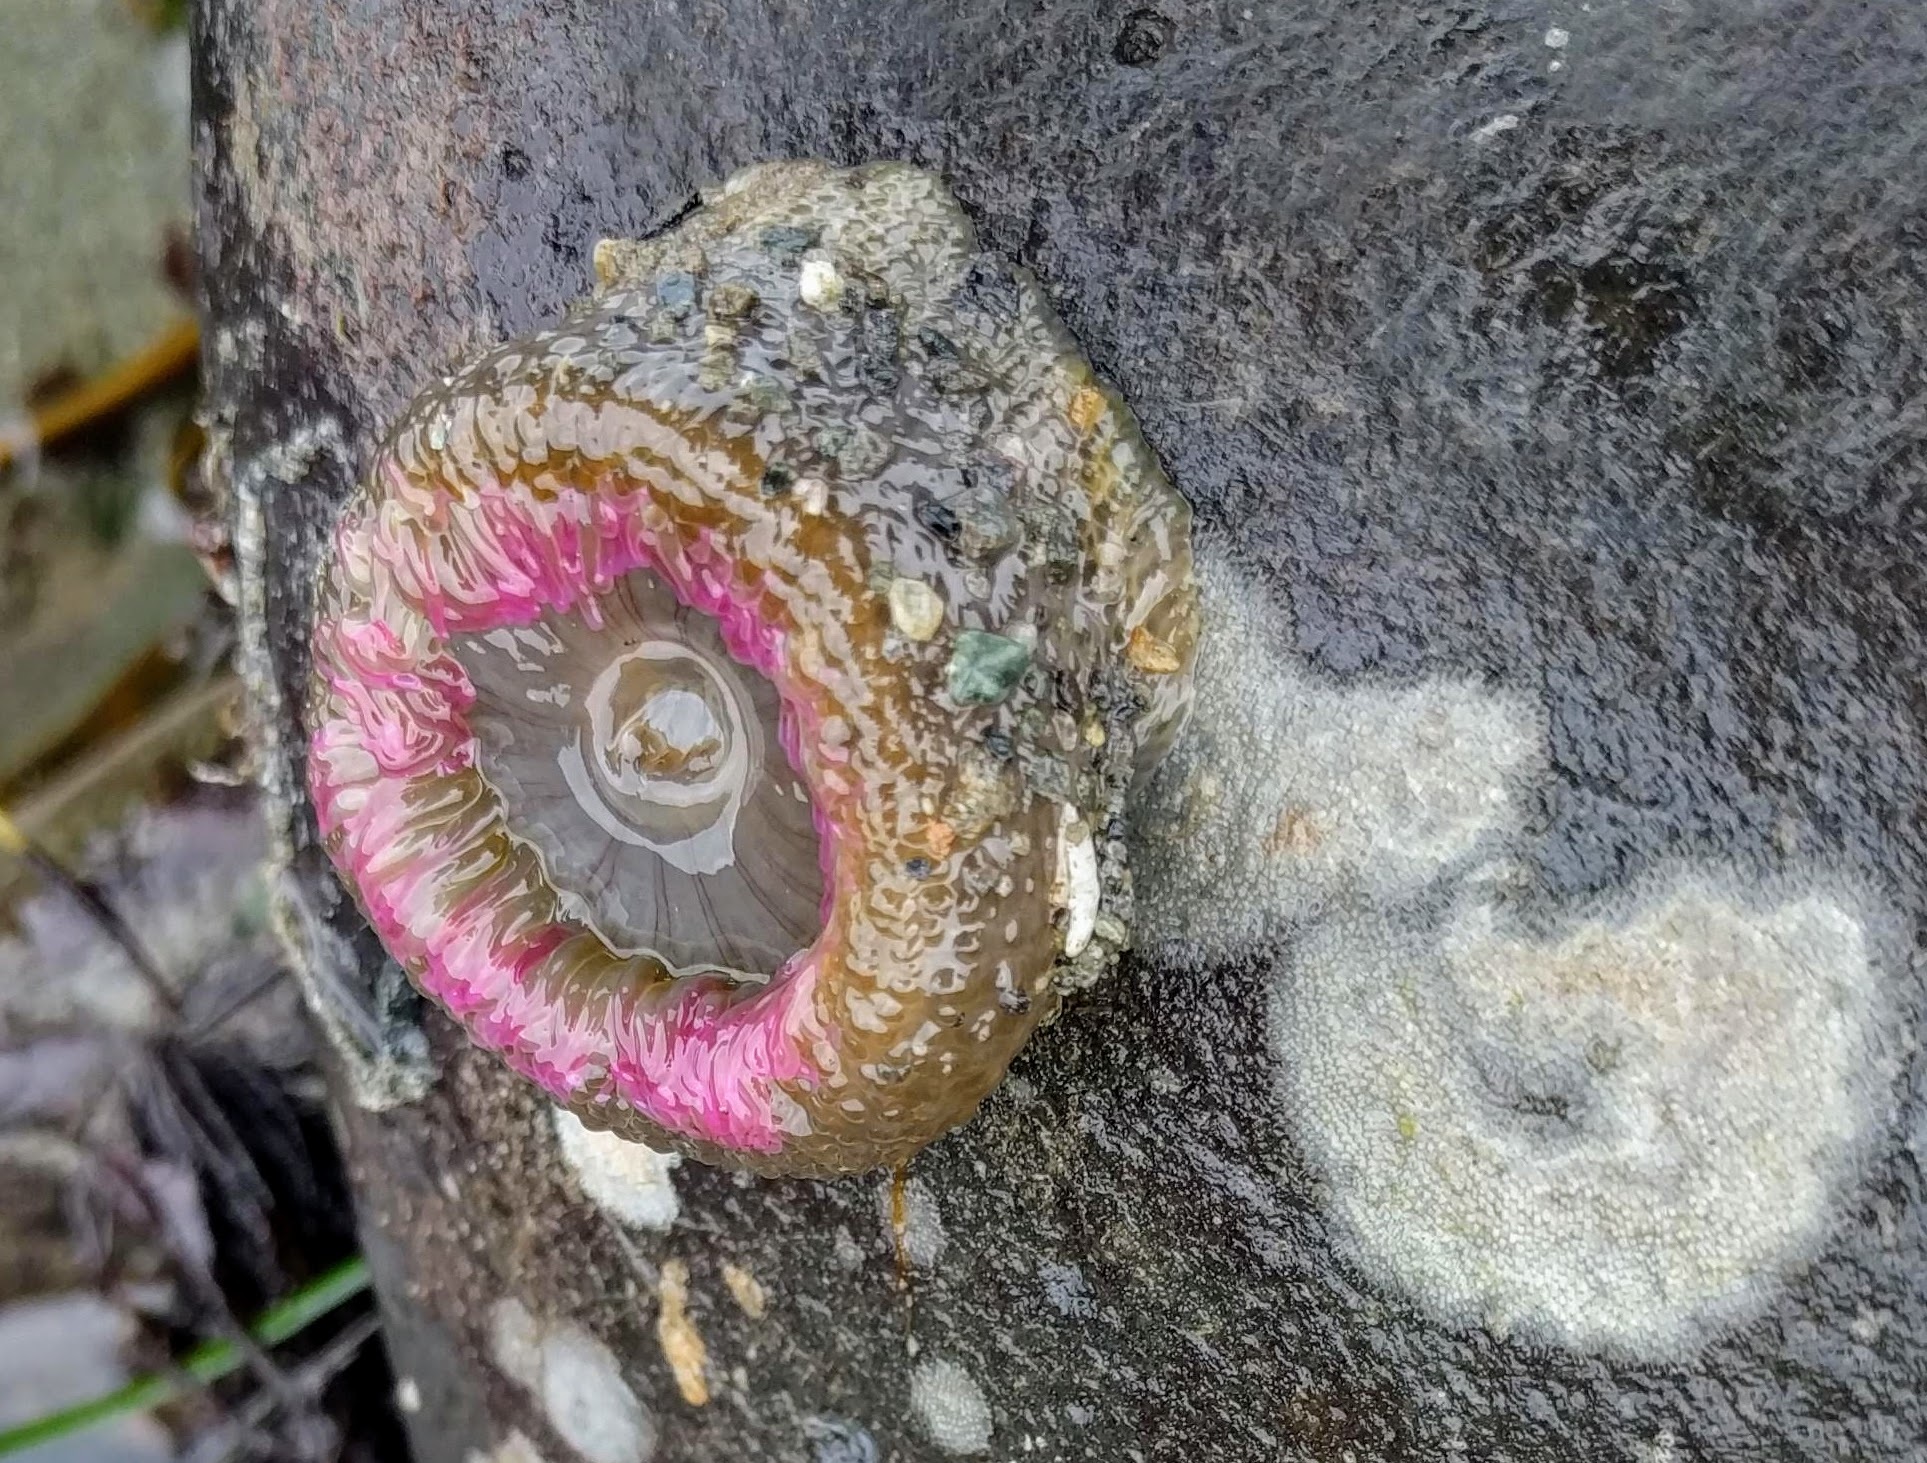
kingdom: Animalia
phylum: Cnidaria
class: Anthozoa
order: Actiniaria
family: Actiniidae
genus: Anthopleura
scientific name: Anthopleura elegantissima
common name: Clonal anemone
